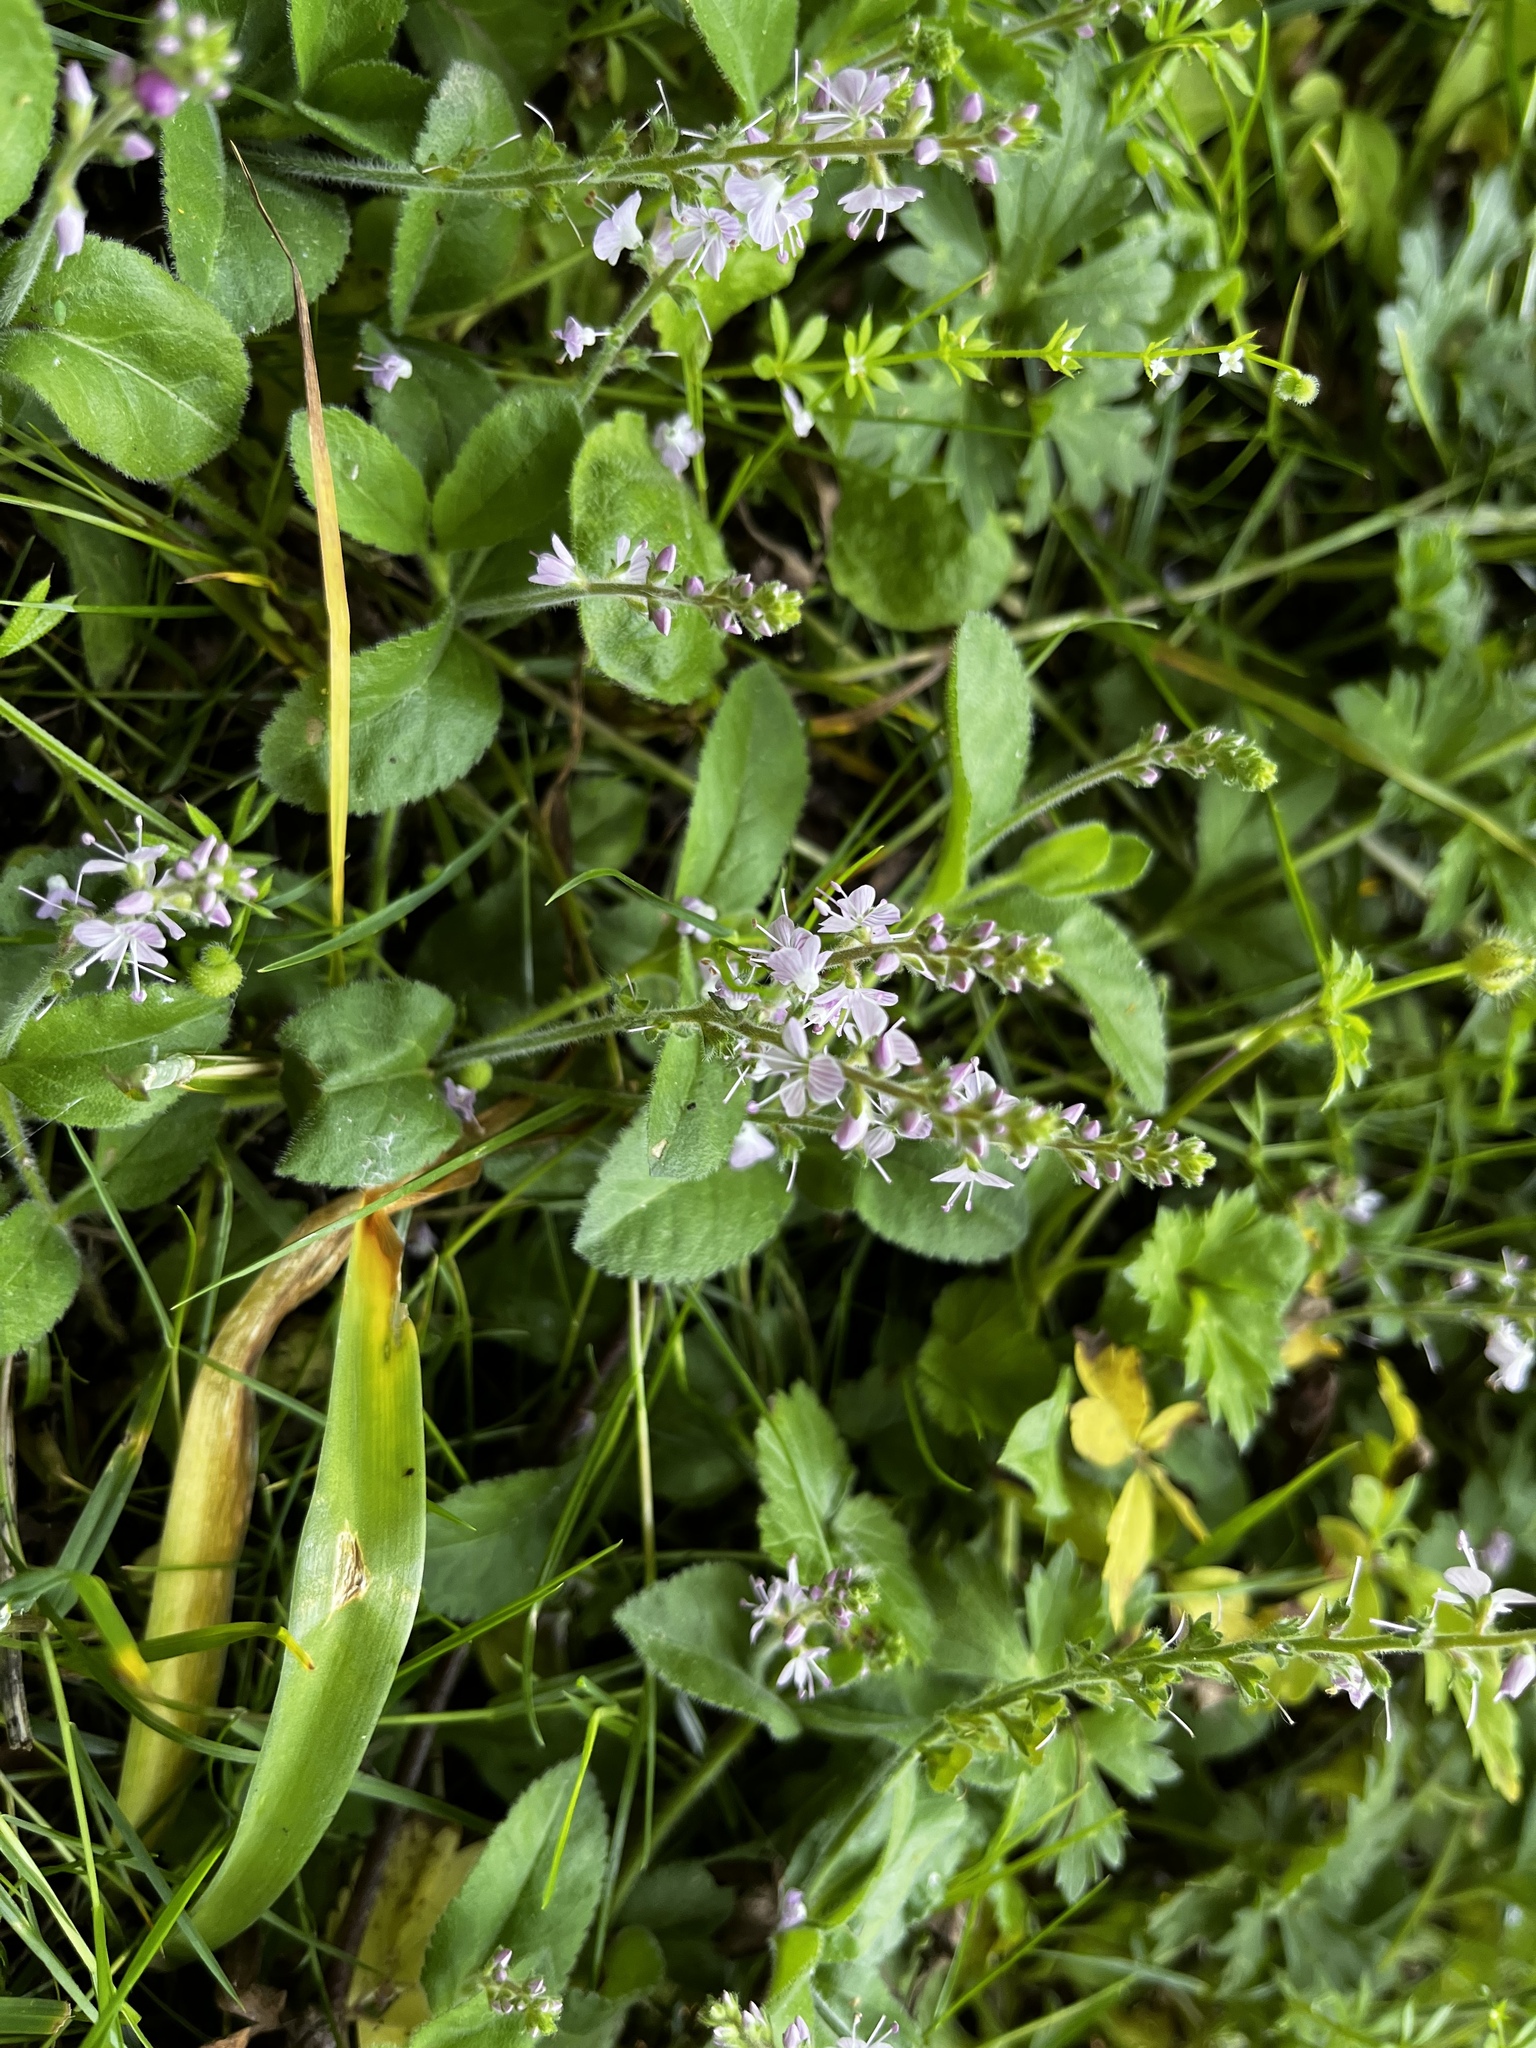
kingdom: Plantae
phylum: Tracheophyta
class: Magnoliopsida
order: Lamiales
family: Plantaginaceae
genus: Veronica
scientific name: Veronica officinalis
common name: Common speedwell
